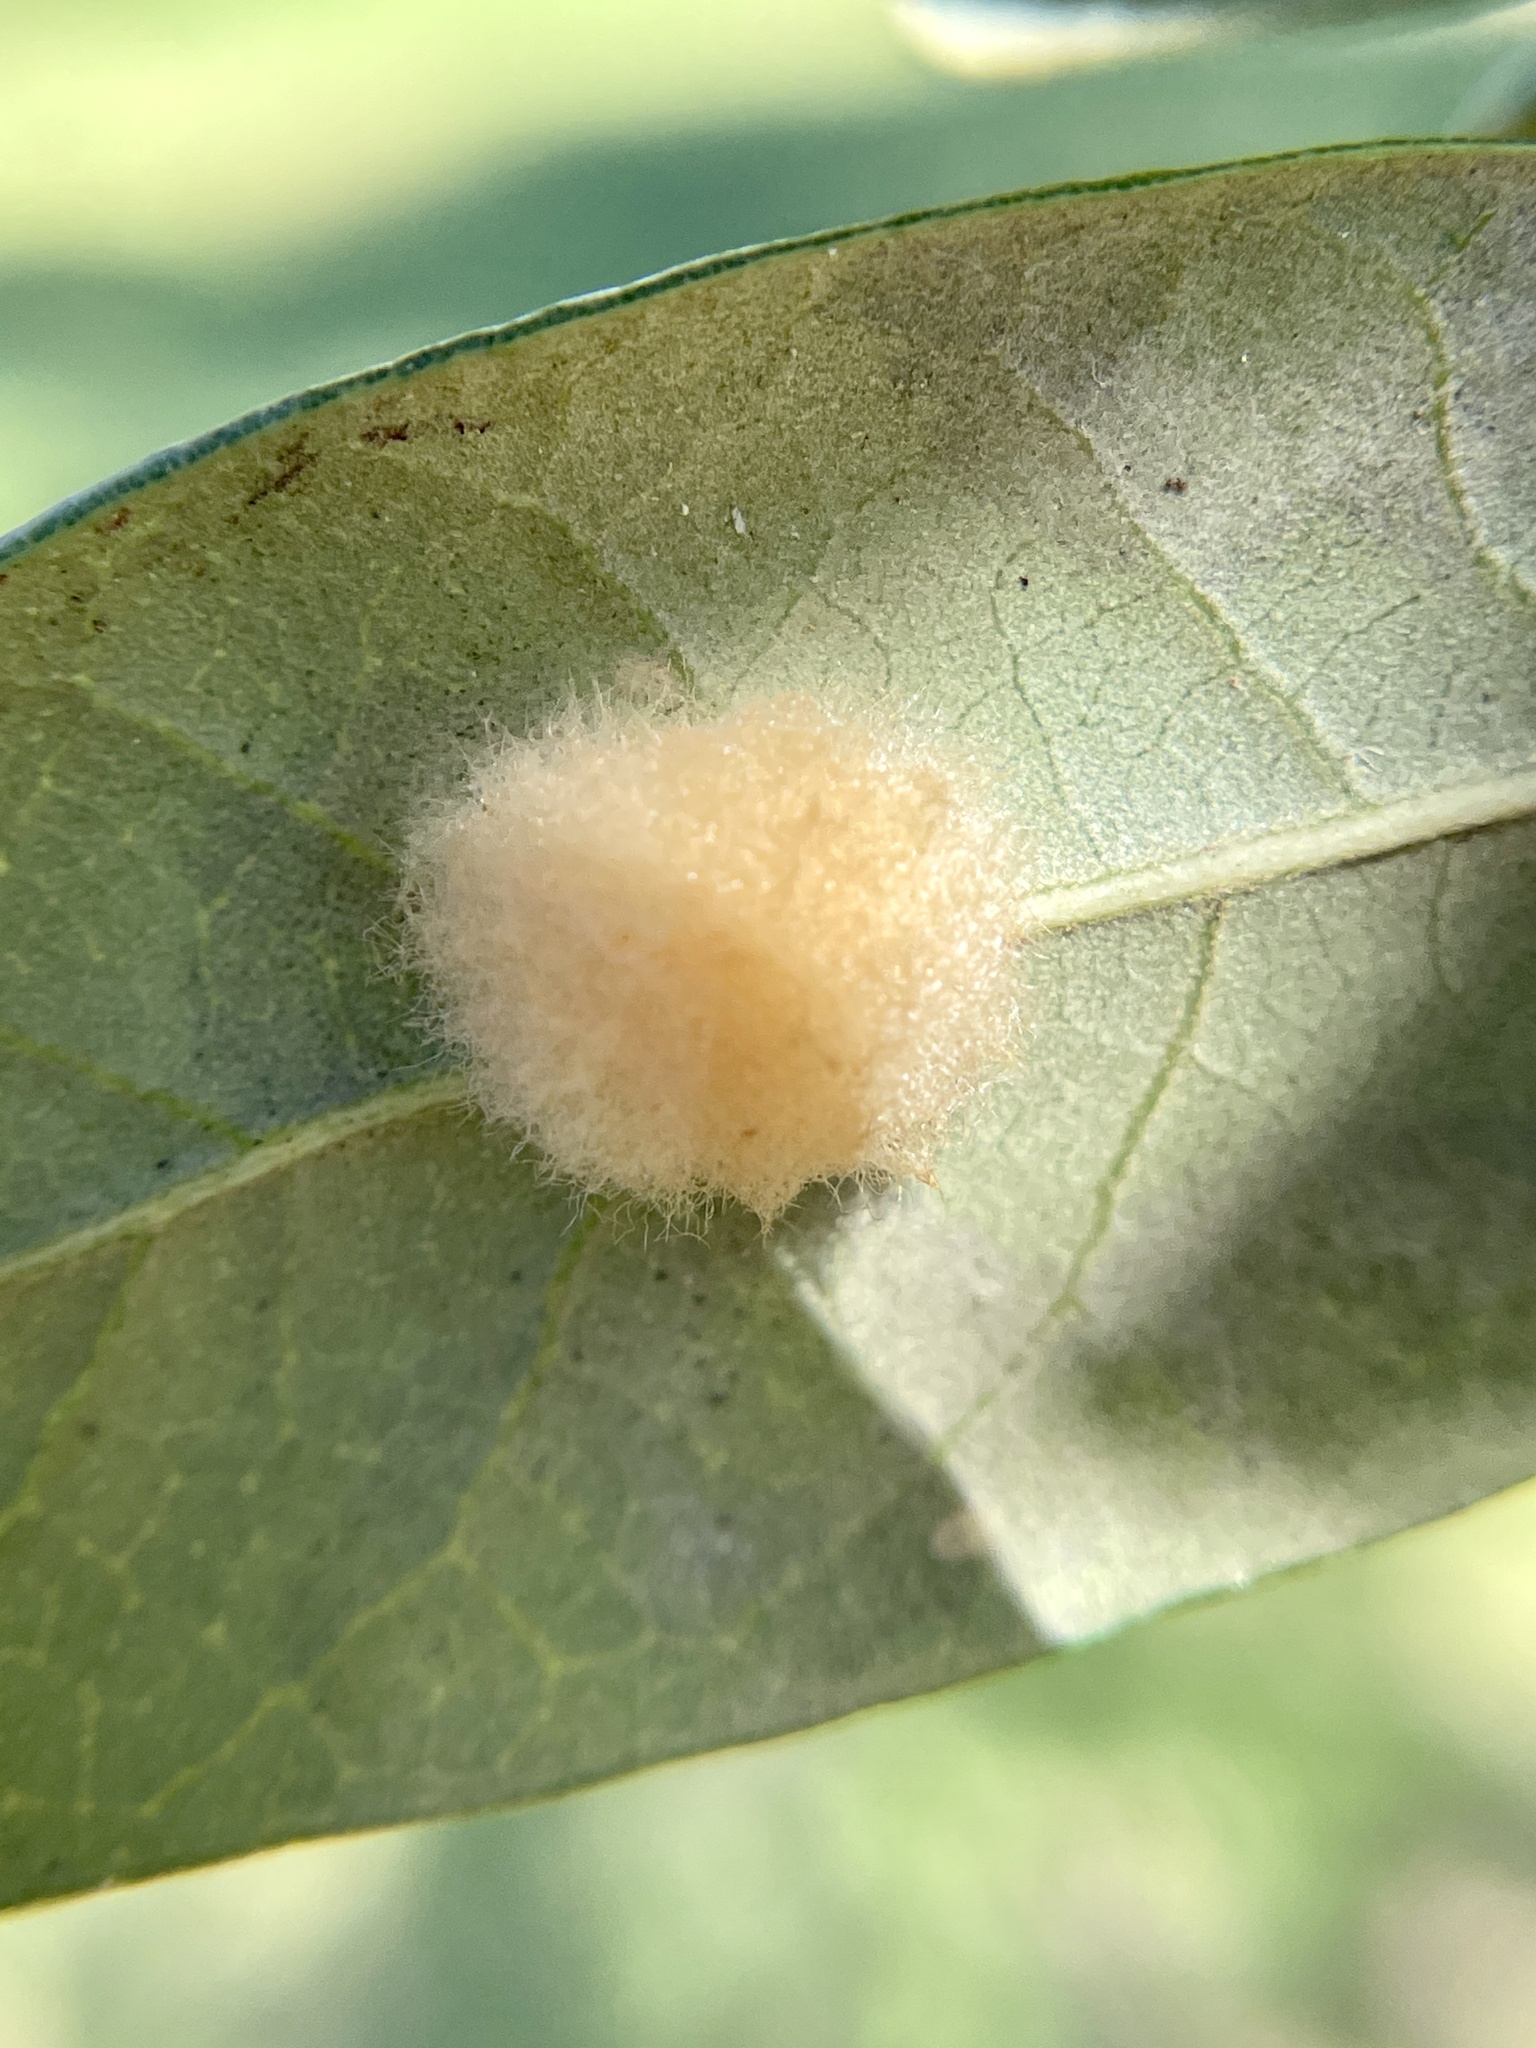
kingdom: Animalia
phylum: Arthropoda
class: Insecta
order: Hymenoptera
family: Cynipidae
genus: Andricus
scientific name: Andricus Druon quercuslanigerum
